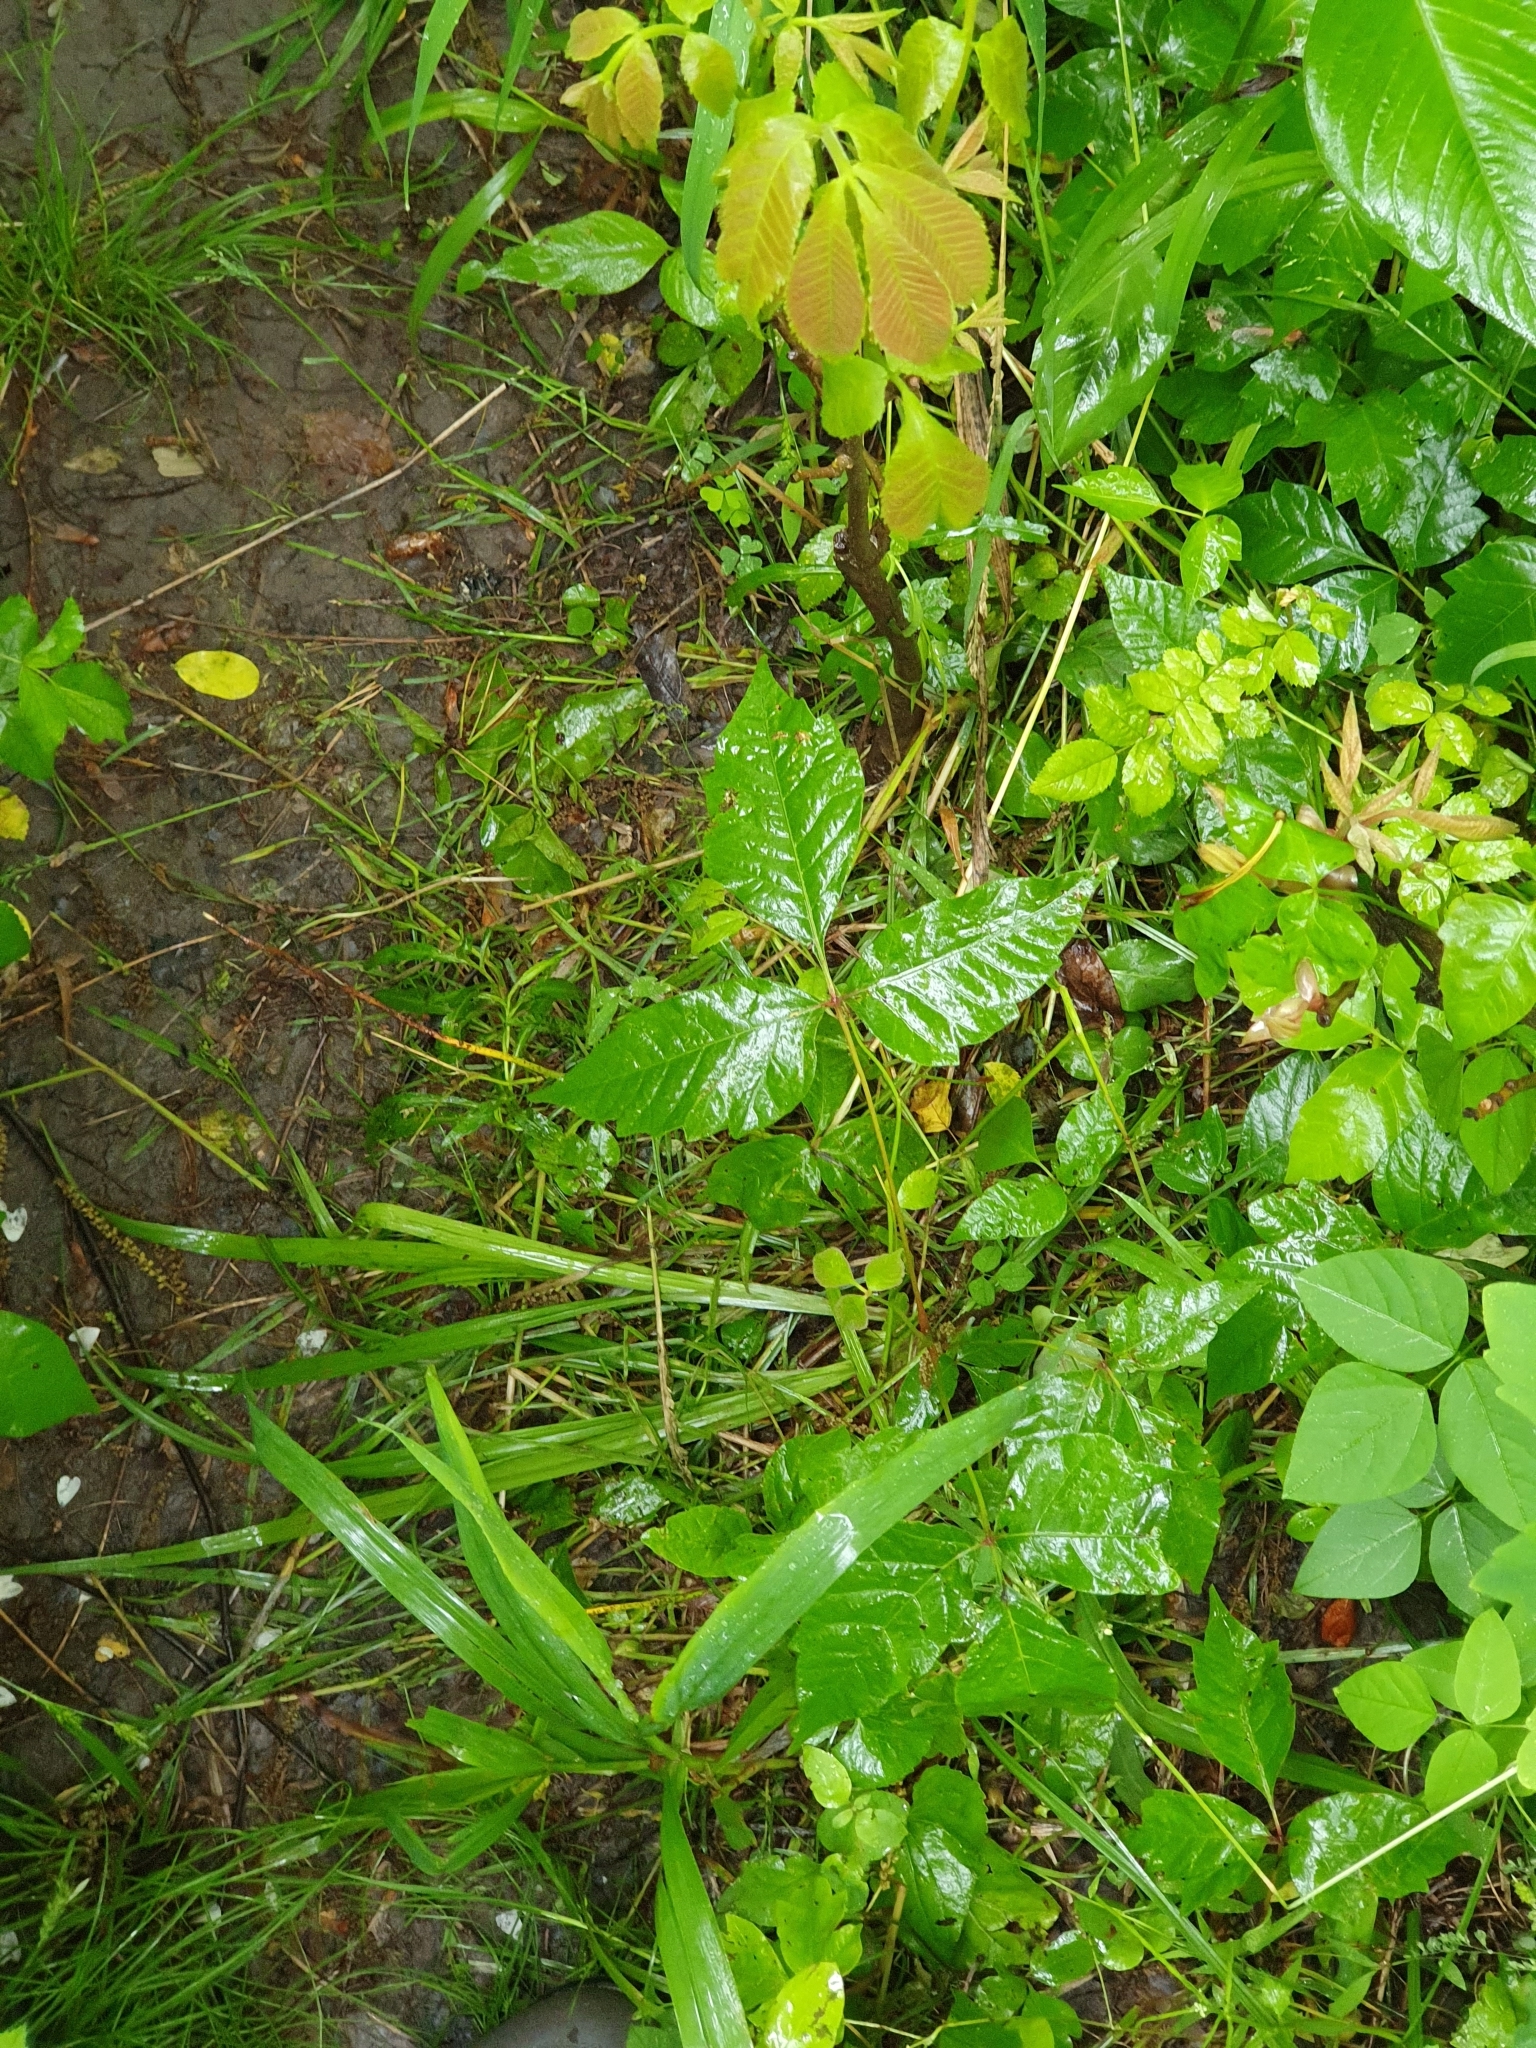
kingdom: Plantae
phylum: Tracheophyta
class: Magnoliopsida
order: Sapindales
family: Anacardiaceae
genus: Toxicodendron
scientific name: Toxicodendron radicans
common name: Poison ivy
